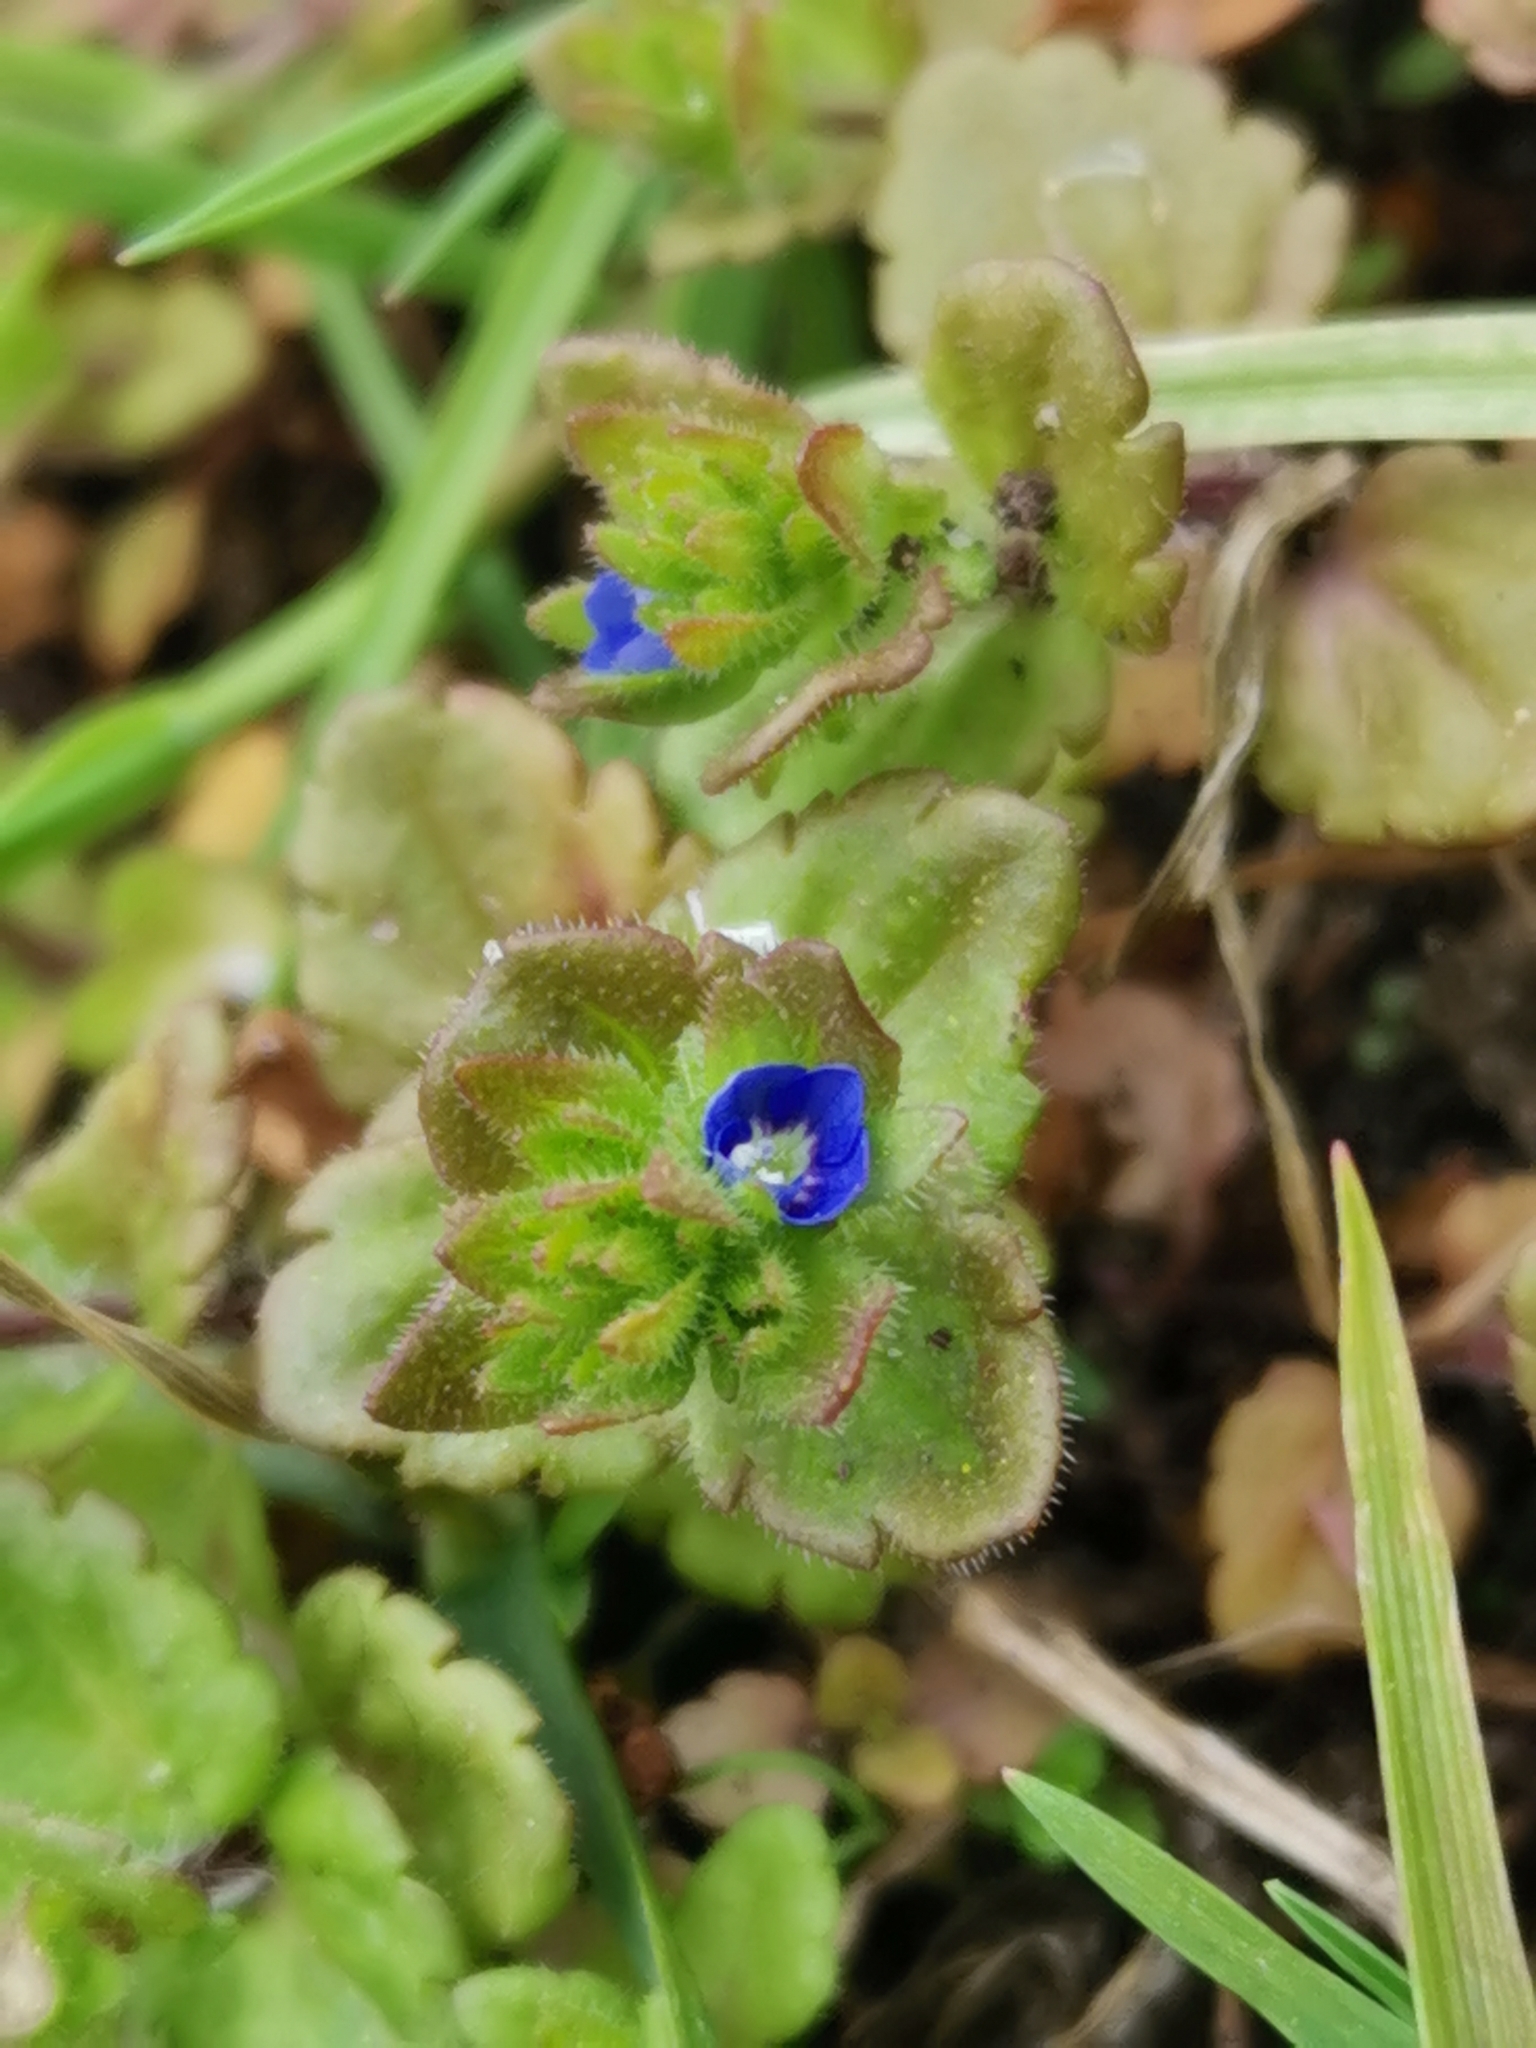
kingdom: Plantae
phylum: Tracheophyta
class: Magnoliopsida
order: Lamiales
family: Plantaginaceae
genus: Veronica
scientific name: Veronica arvensis
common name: Corn speedwell
